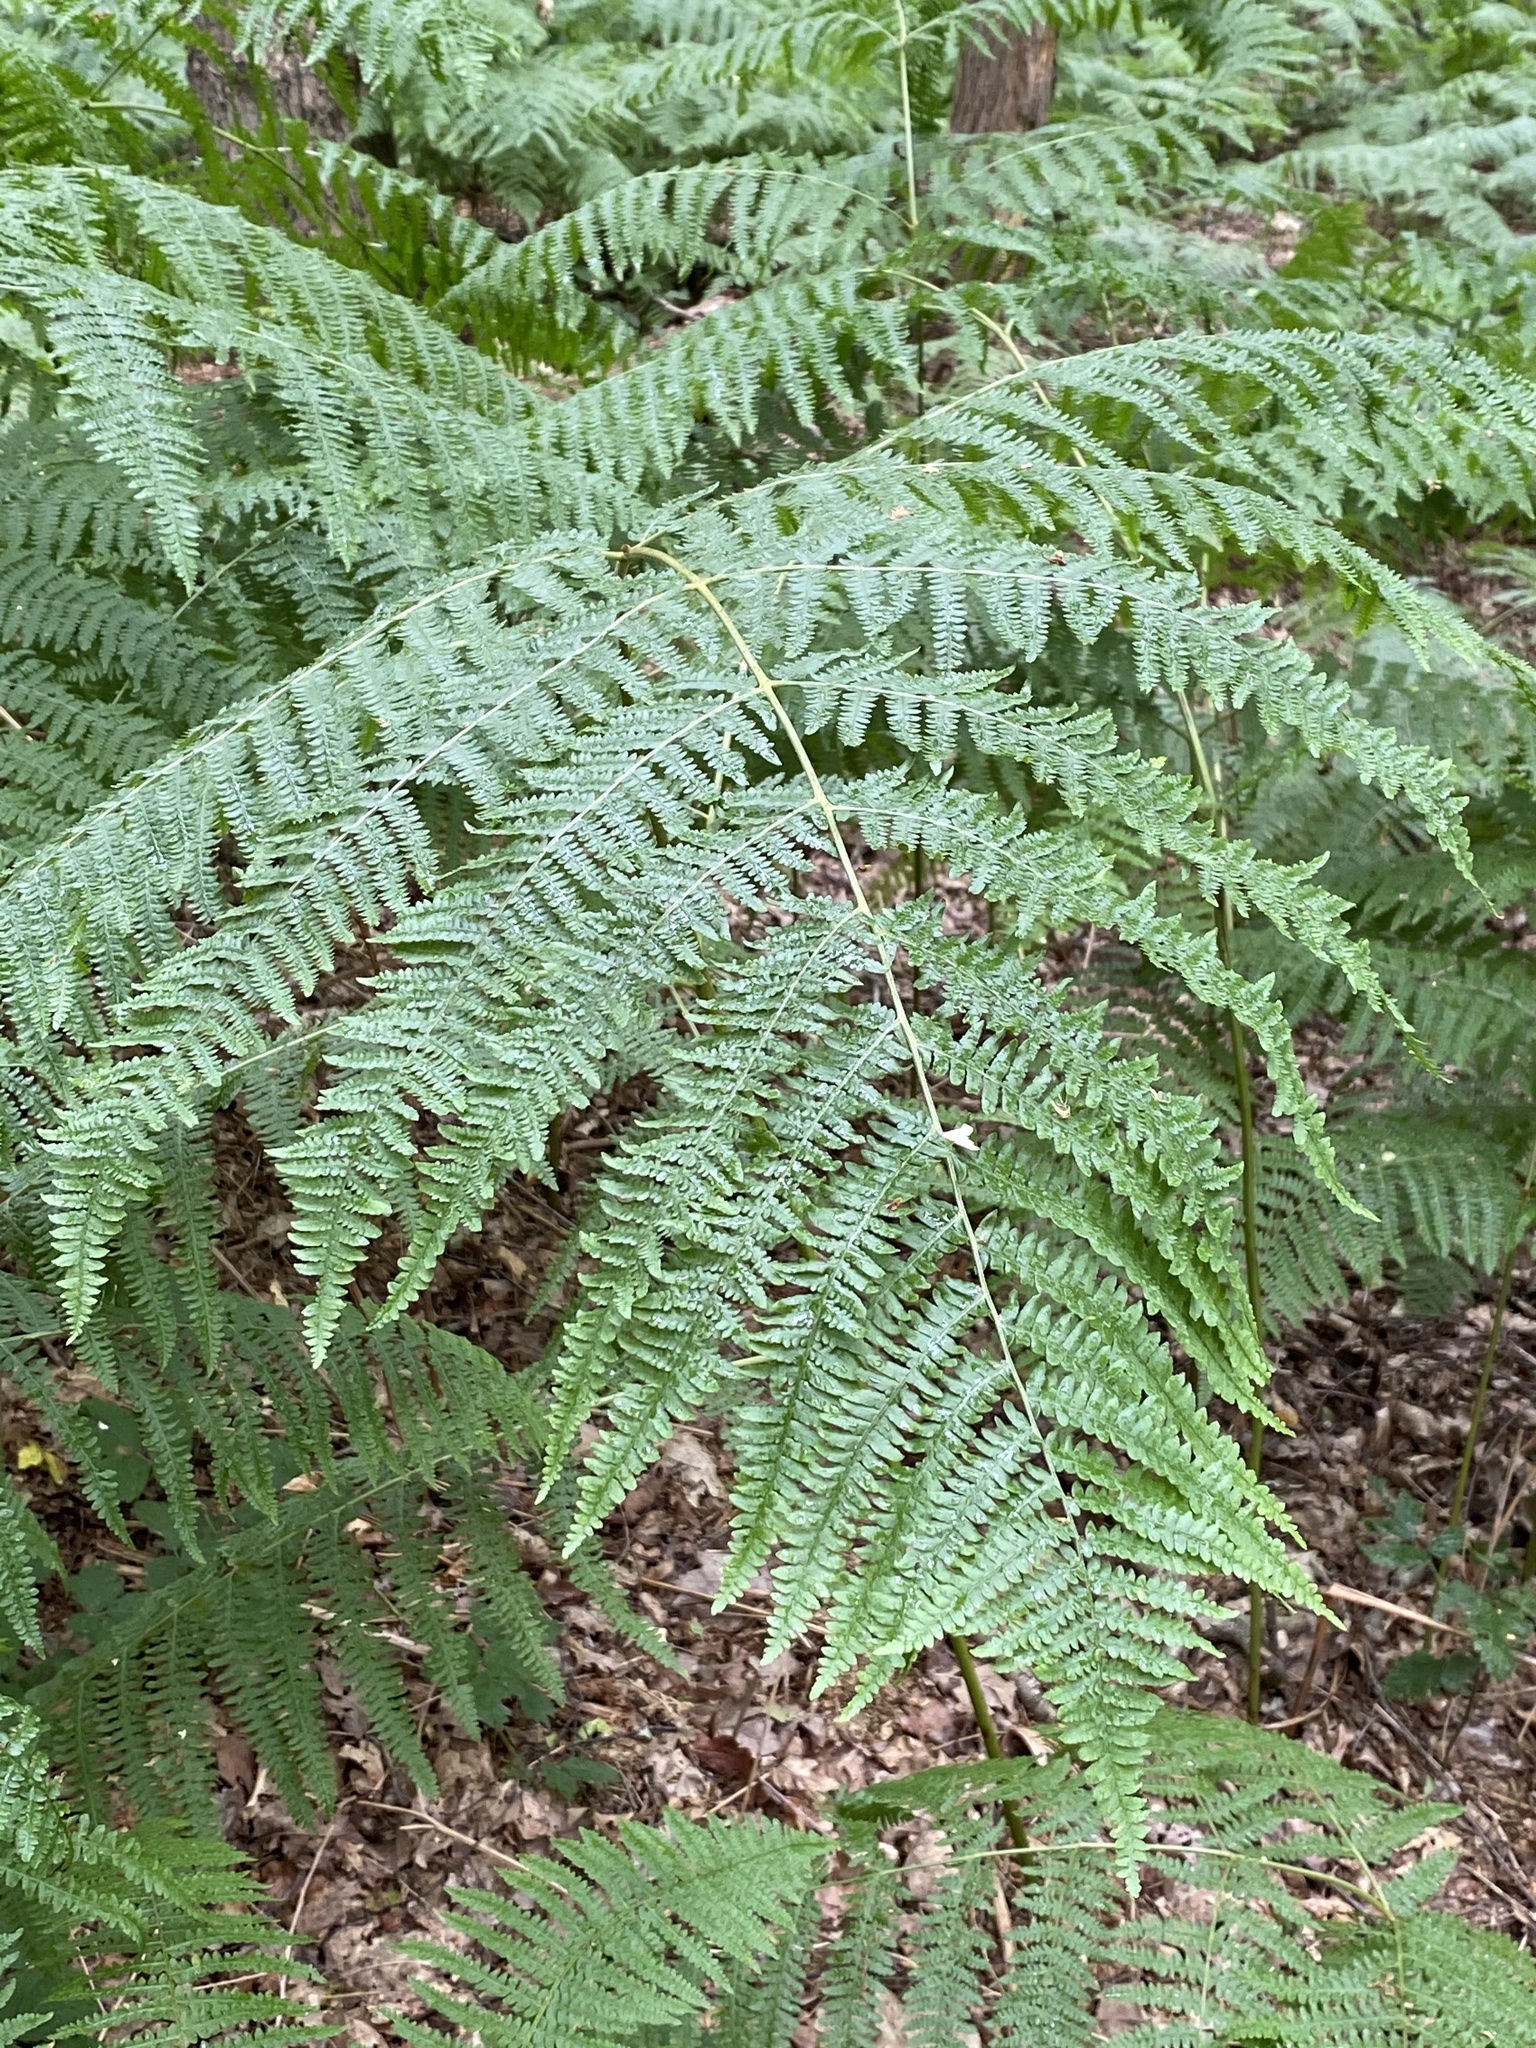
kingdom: Plantae
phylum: Tracheophyta
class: Polypodiopsida
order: Polypodiales
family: Dennstaedtiaceae
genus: Pteridium
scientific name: Pteridium aquilinum
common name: Bracken
